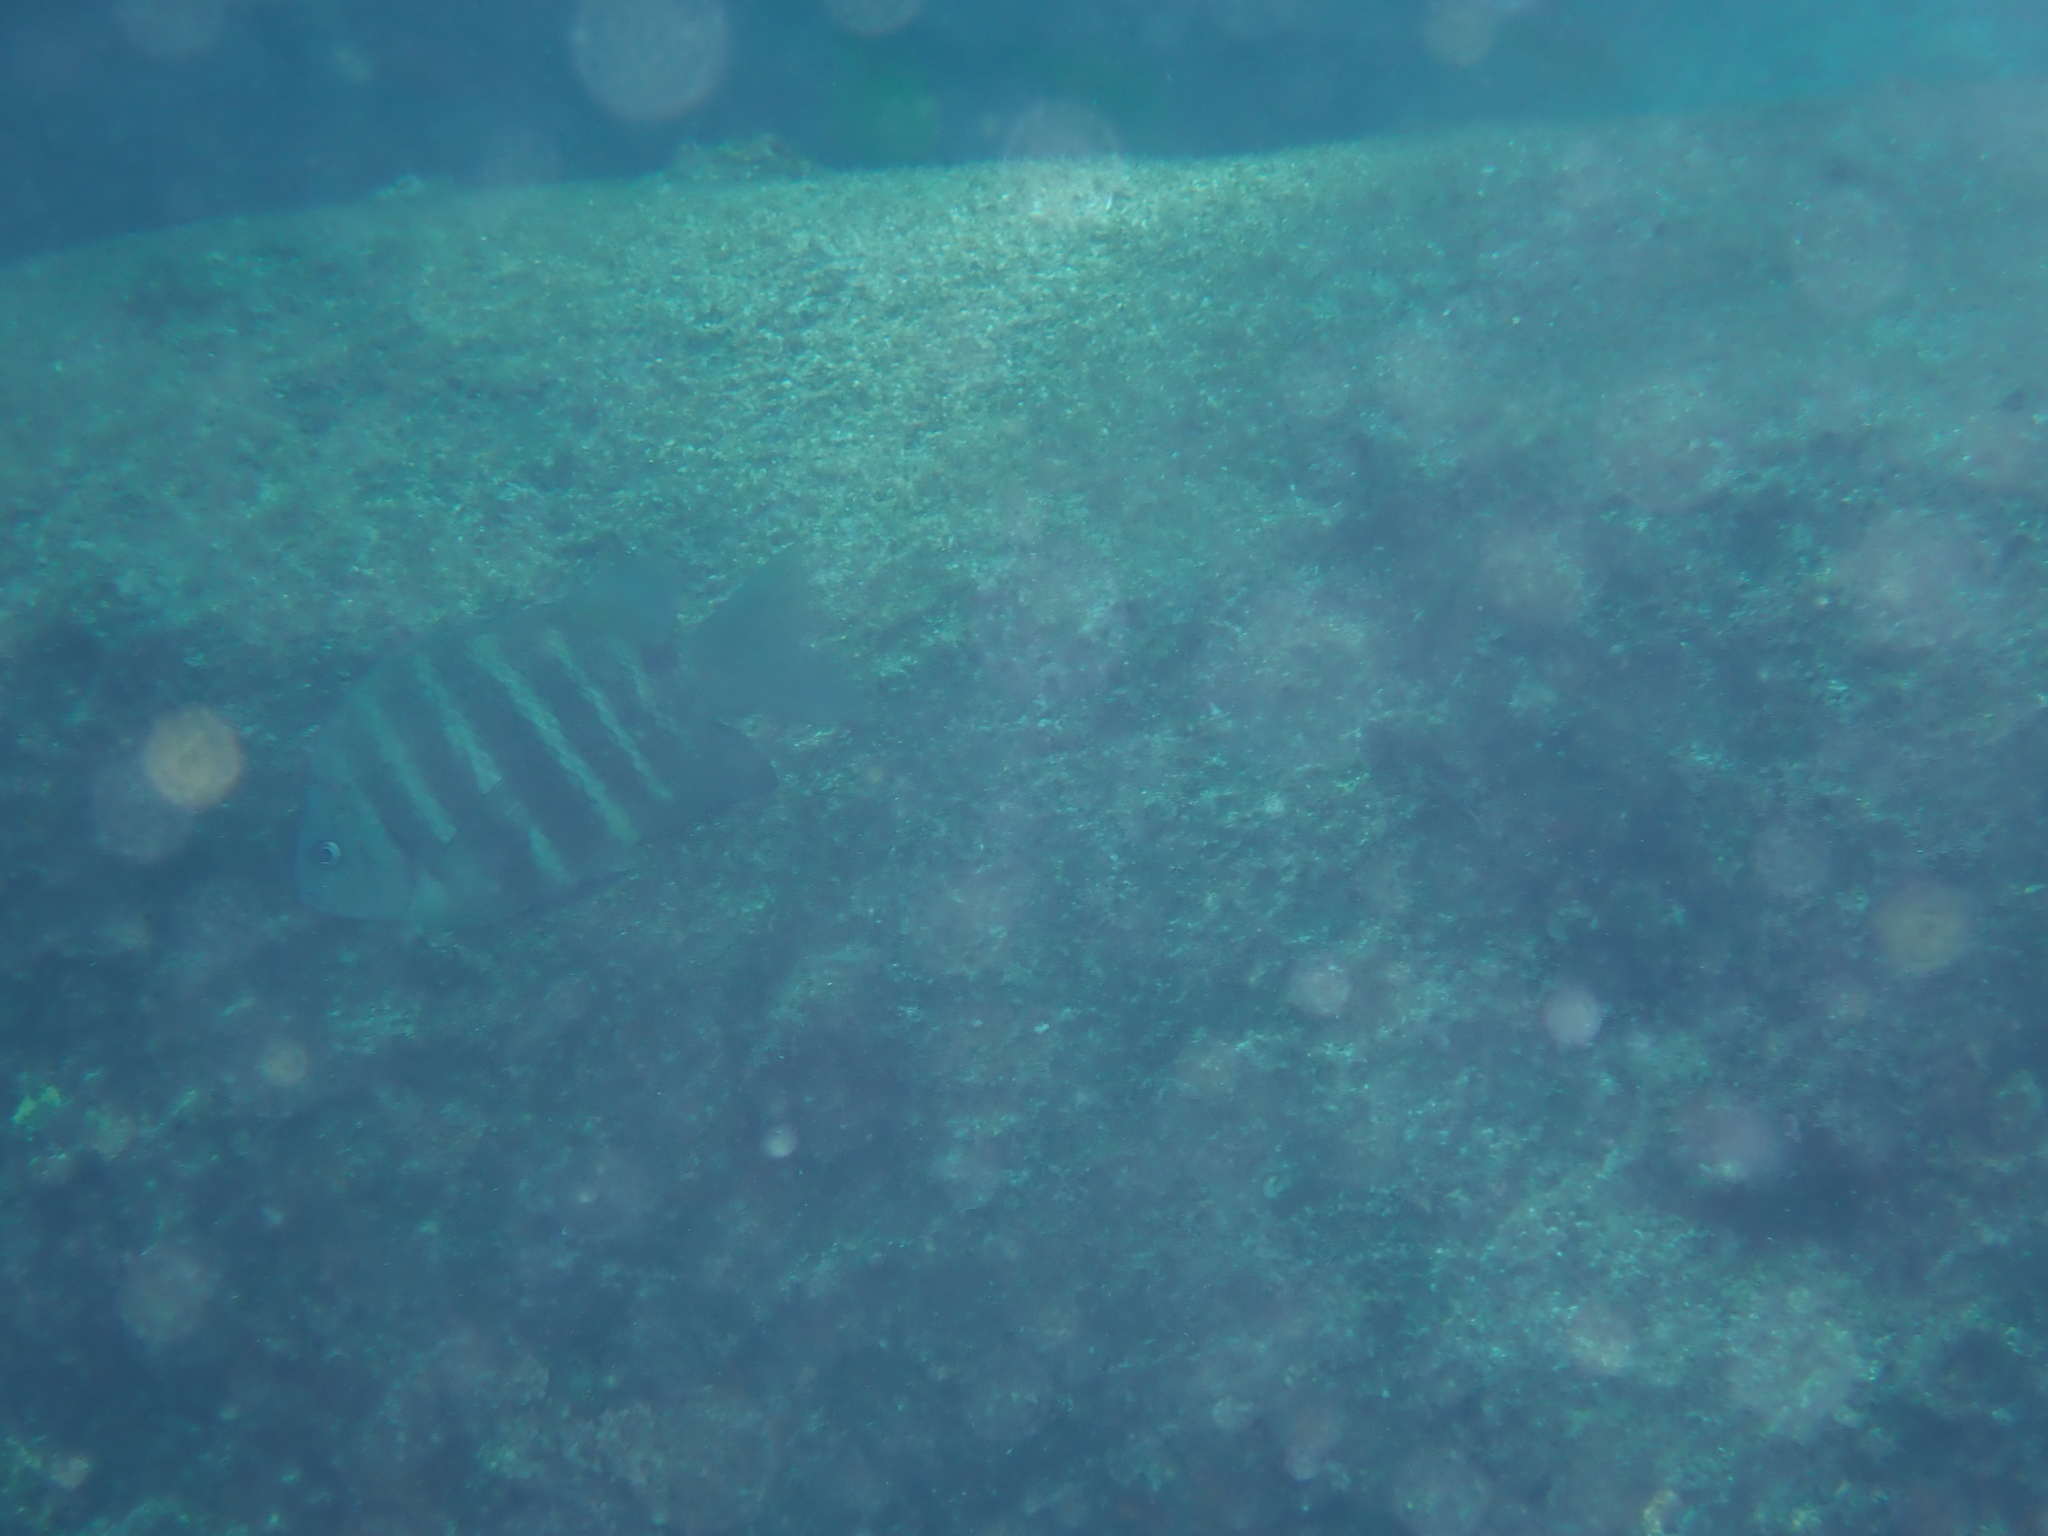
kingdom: Animalia
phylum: Chordata
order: Perciformes
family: Pomacentridae
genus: Abudefduf
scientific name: Abudefduf sordidus
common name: Blackspot sergeant
